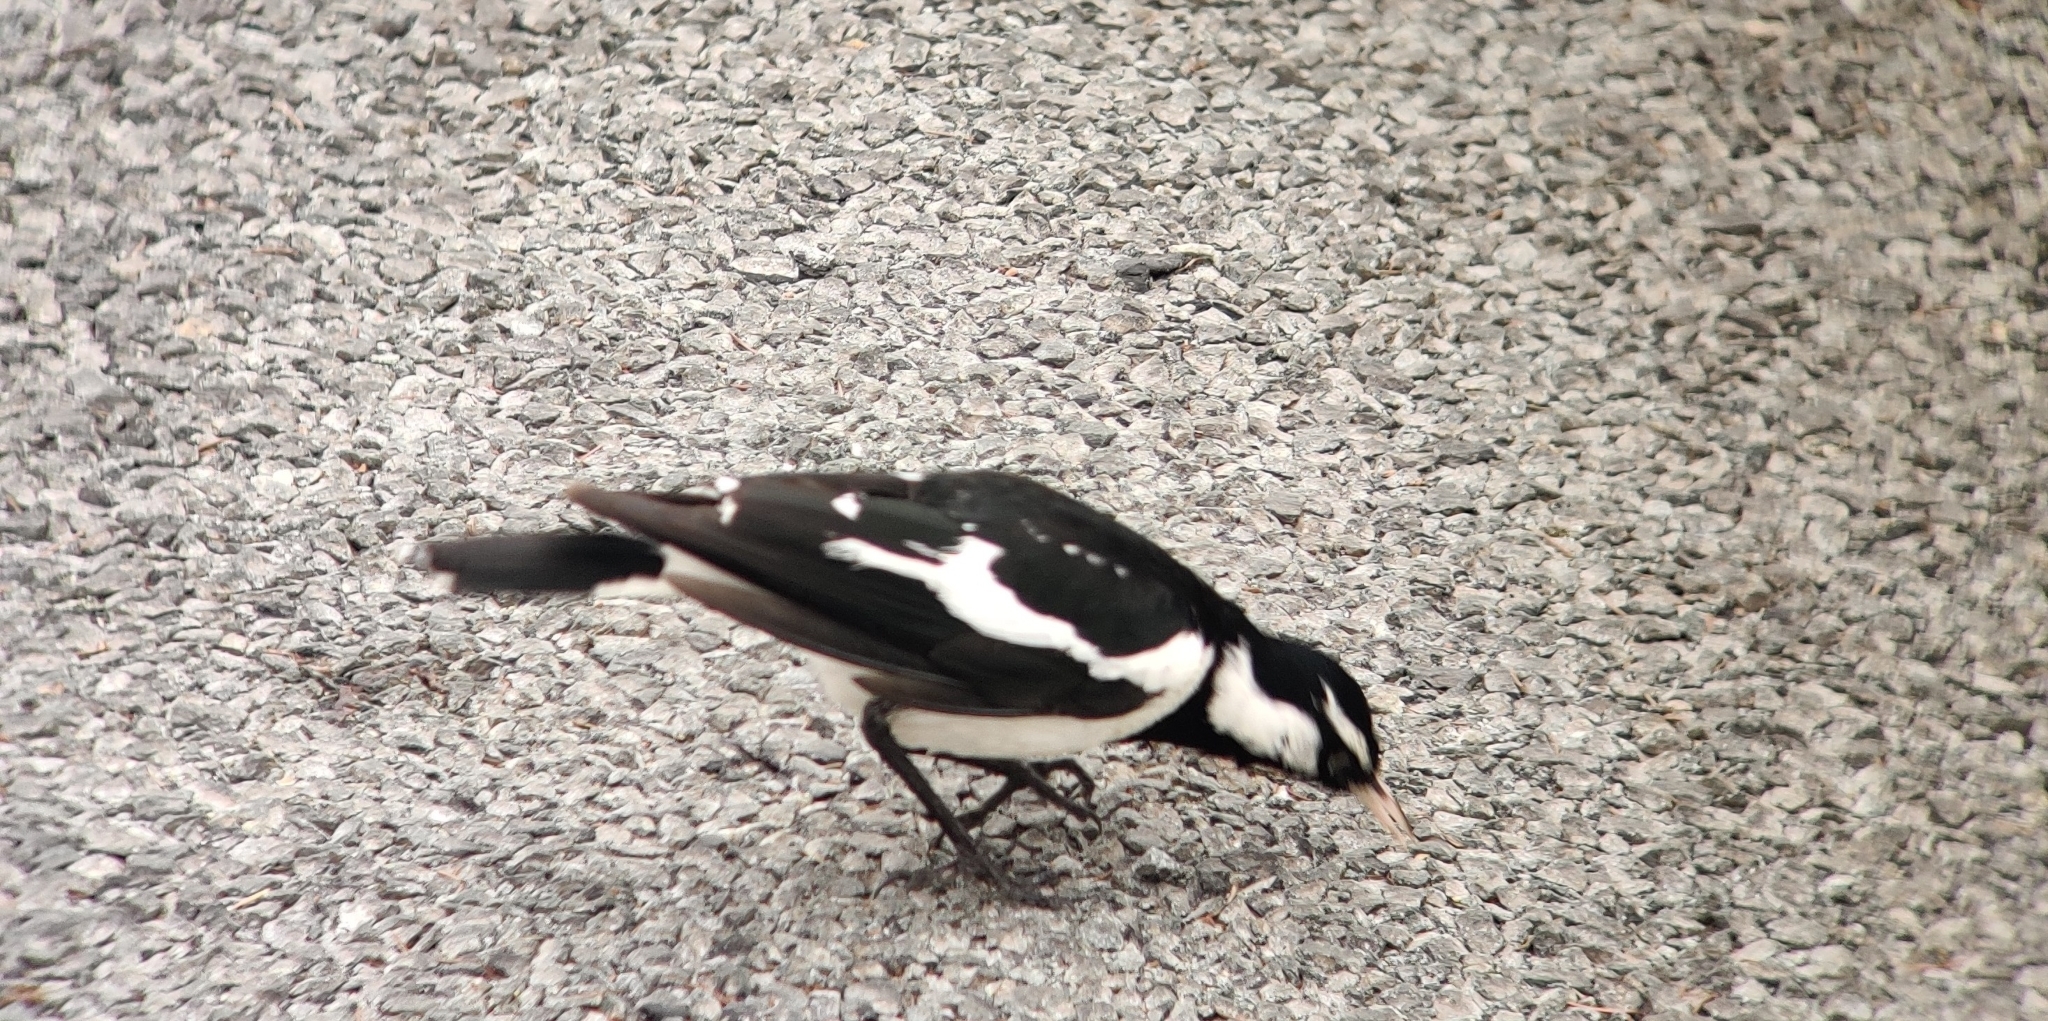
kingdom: Animalia
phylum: Chordata
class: Aves
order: Passeriformes
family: Monarchidae
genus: Grallina
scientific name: Grallina cyanoleuca
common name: Magpie-lark
